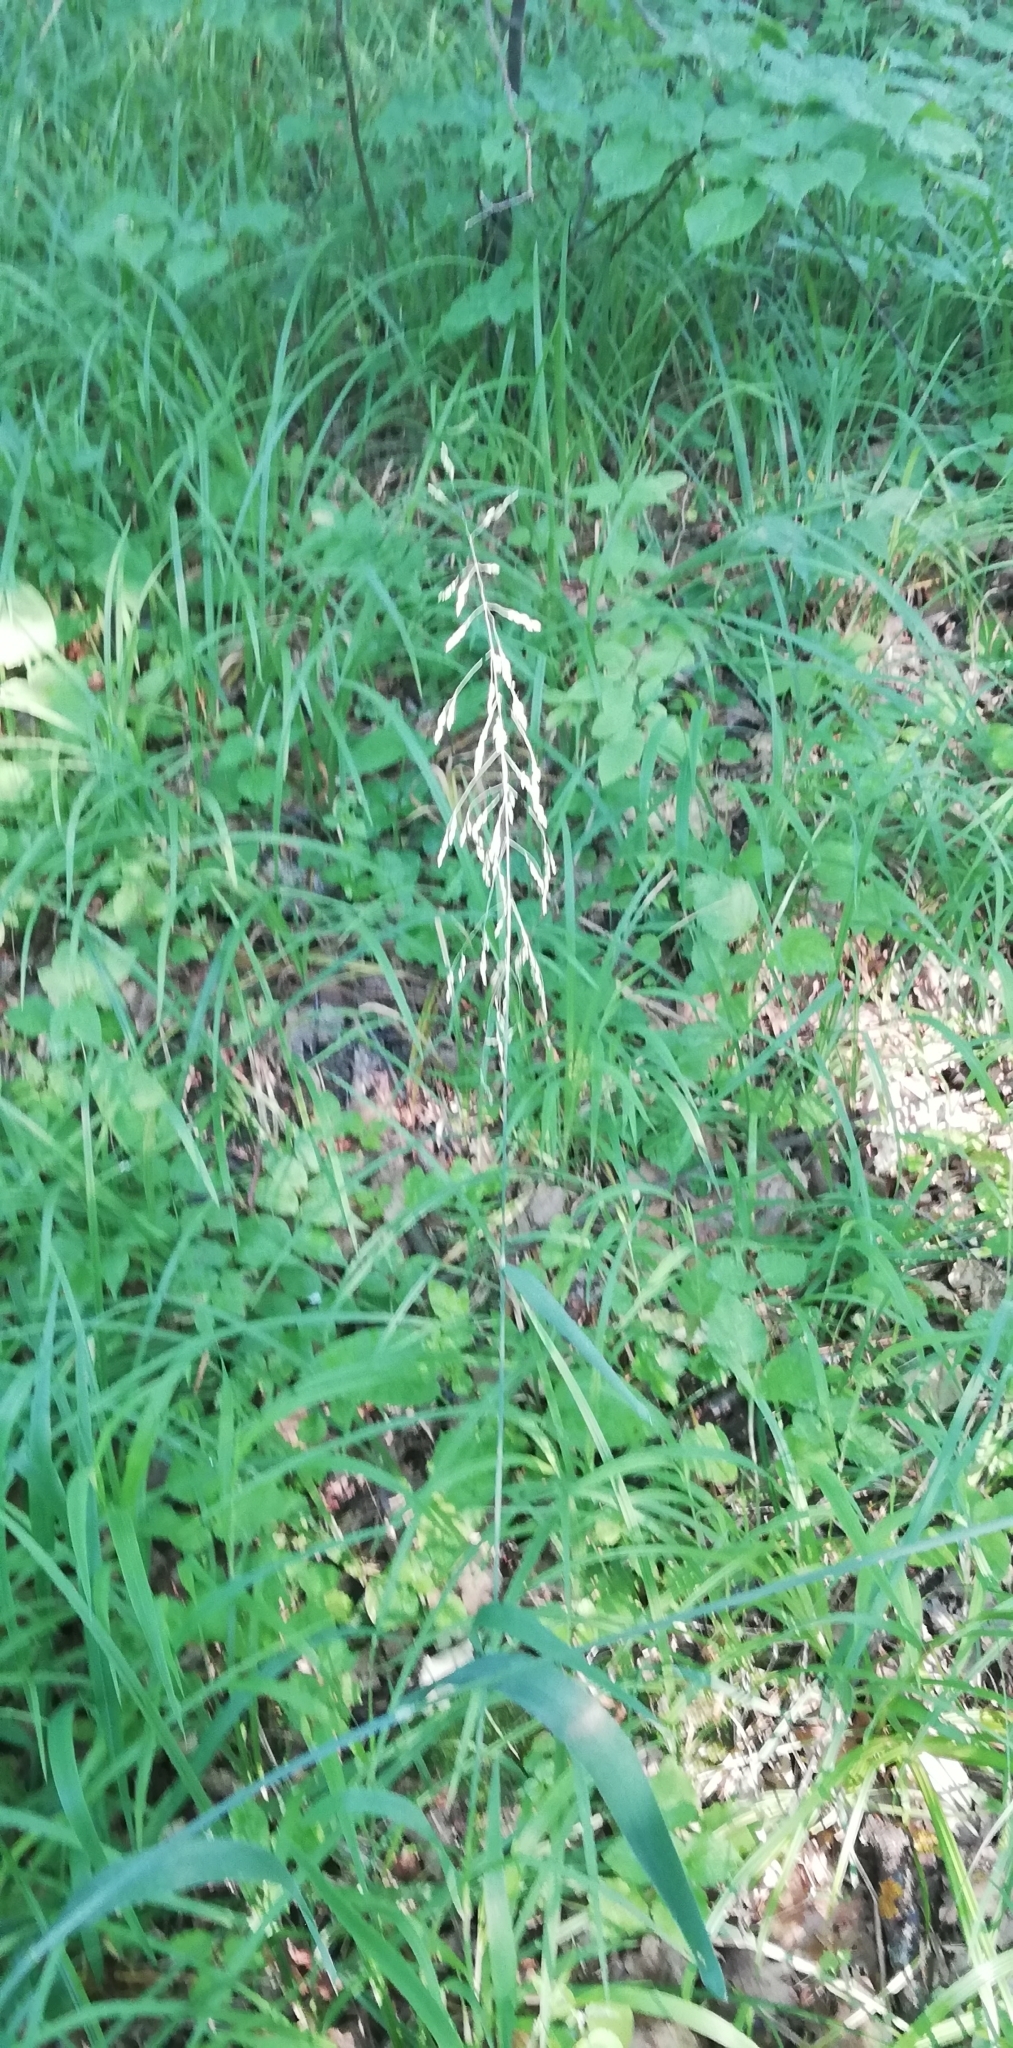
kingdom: Plantae
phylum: Tracheophyta
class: Liliopsida
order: Poales
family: Poaceae
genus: Milium
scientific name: Milium effusum
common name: Wood millet
